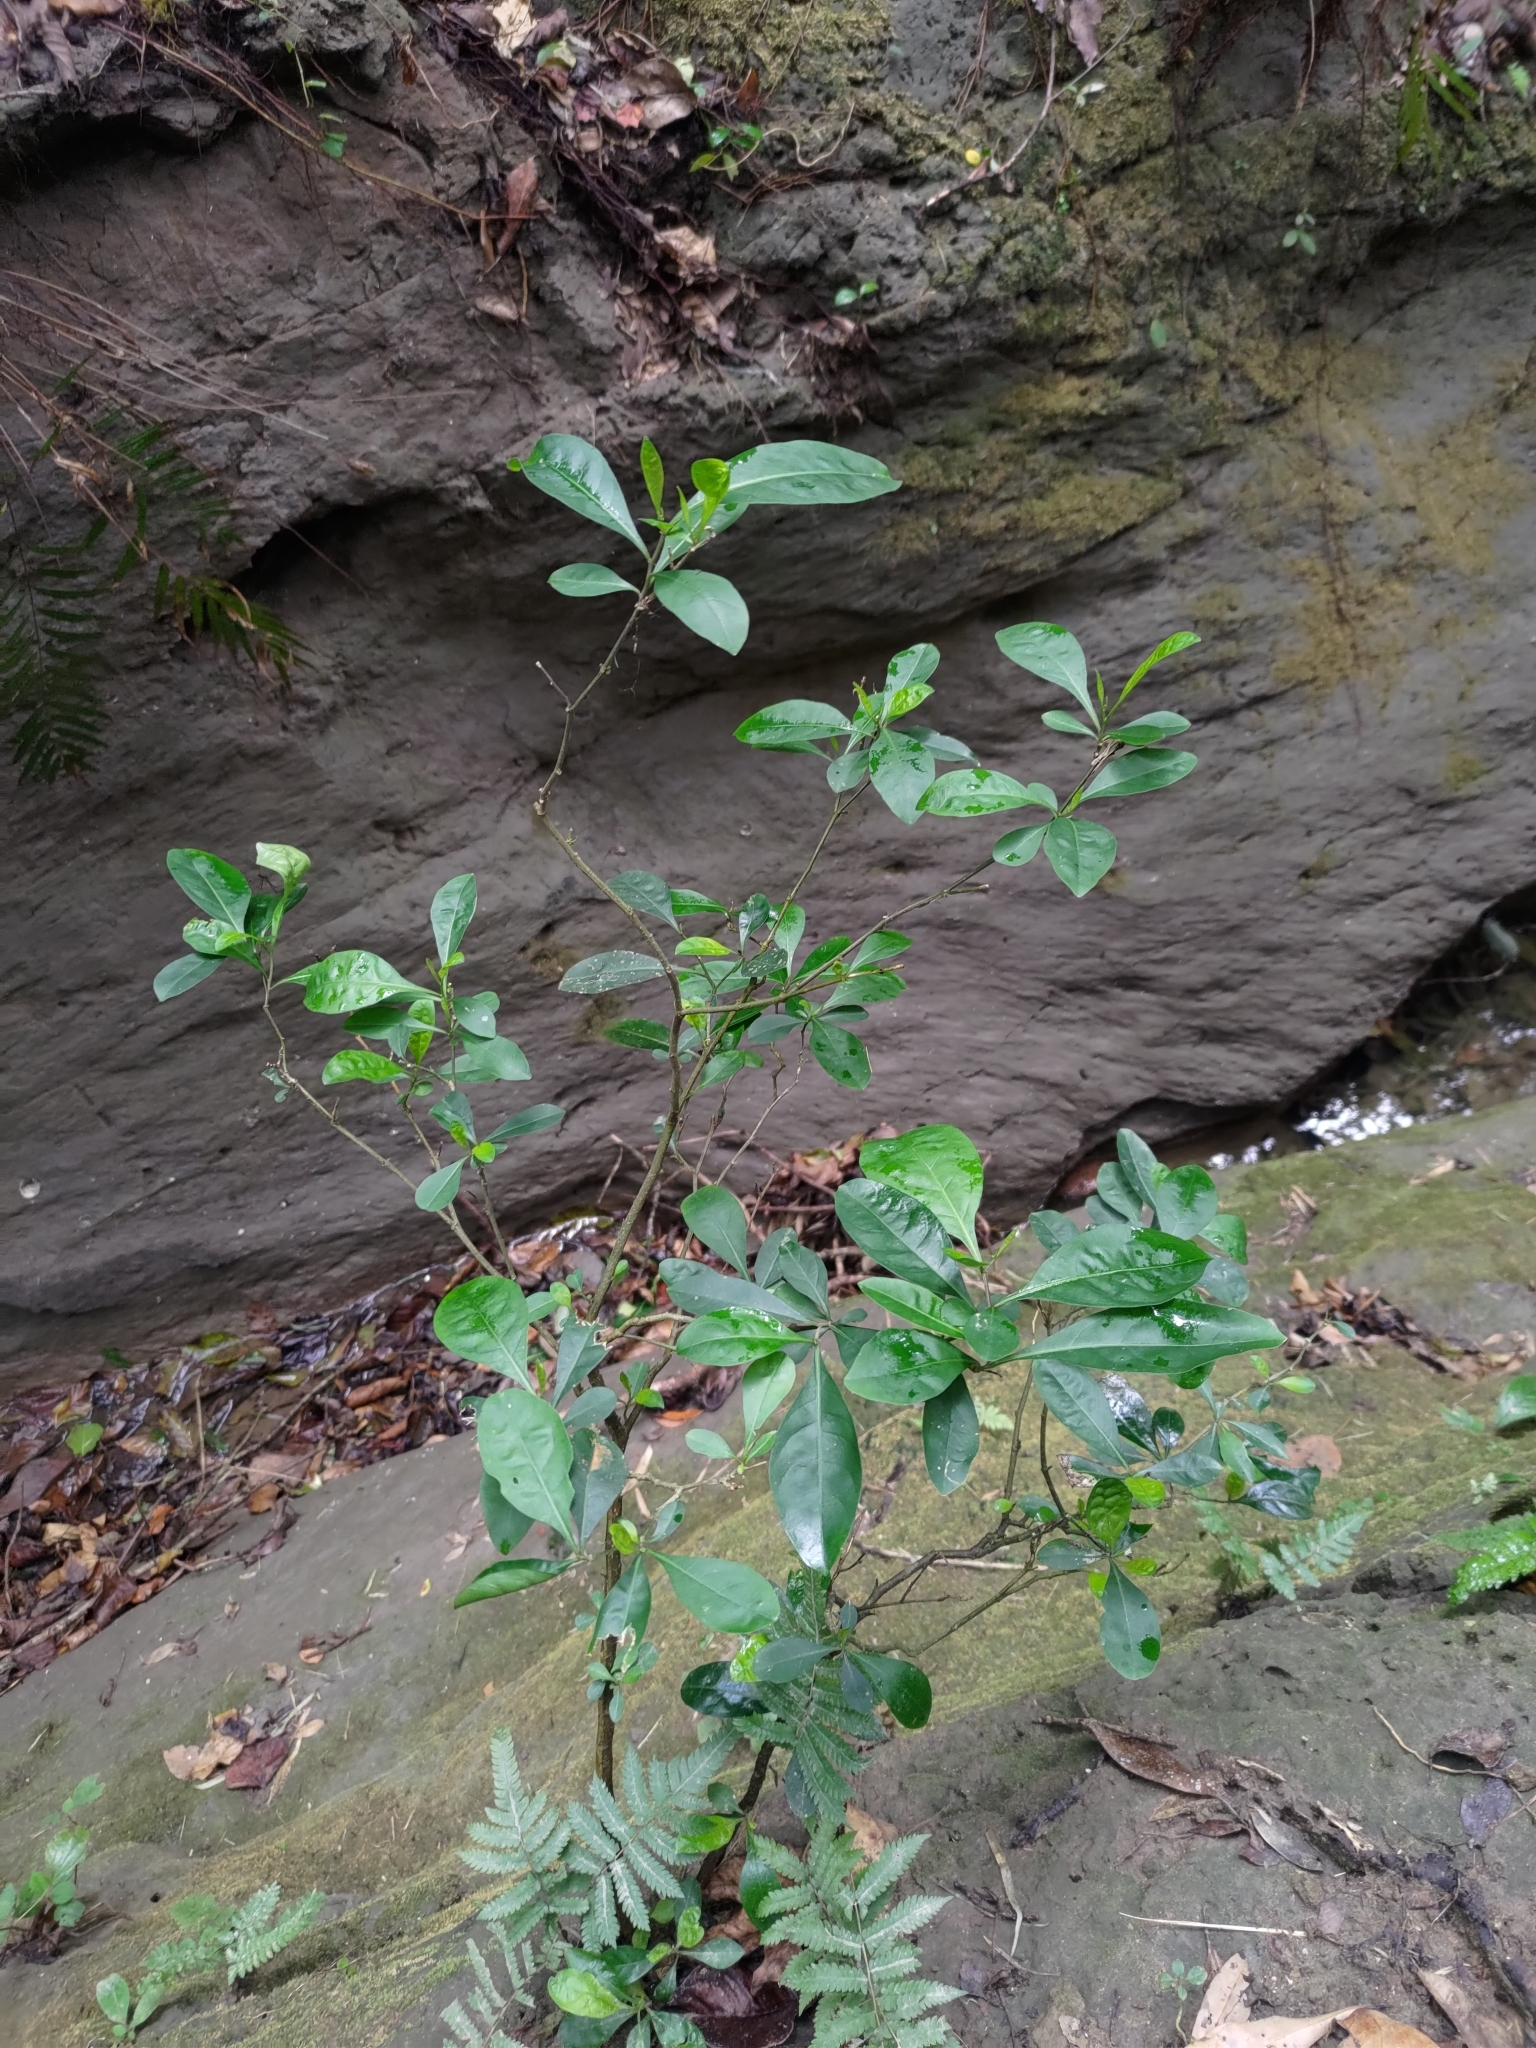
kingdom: Plantae
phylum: Tracheophyta
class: Magnoliopsida
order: Solanales
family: Solanaceae
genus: Solanum
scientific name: Solanum diphyllum
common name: Twoleaf nightshade
